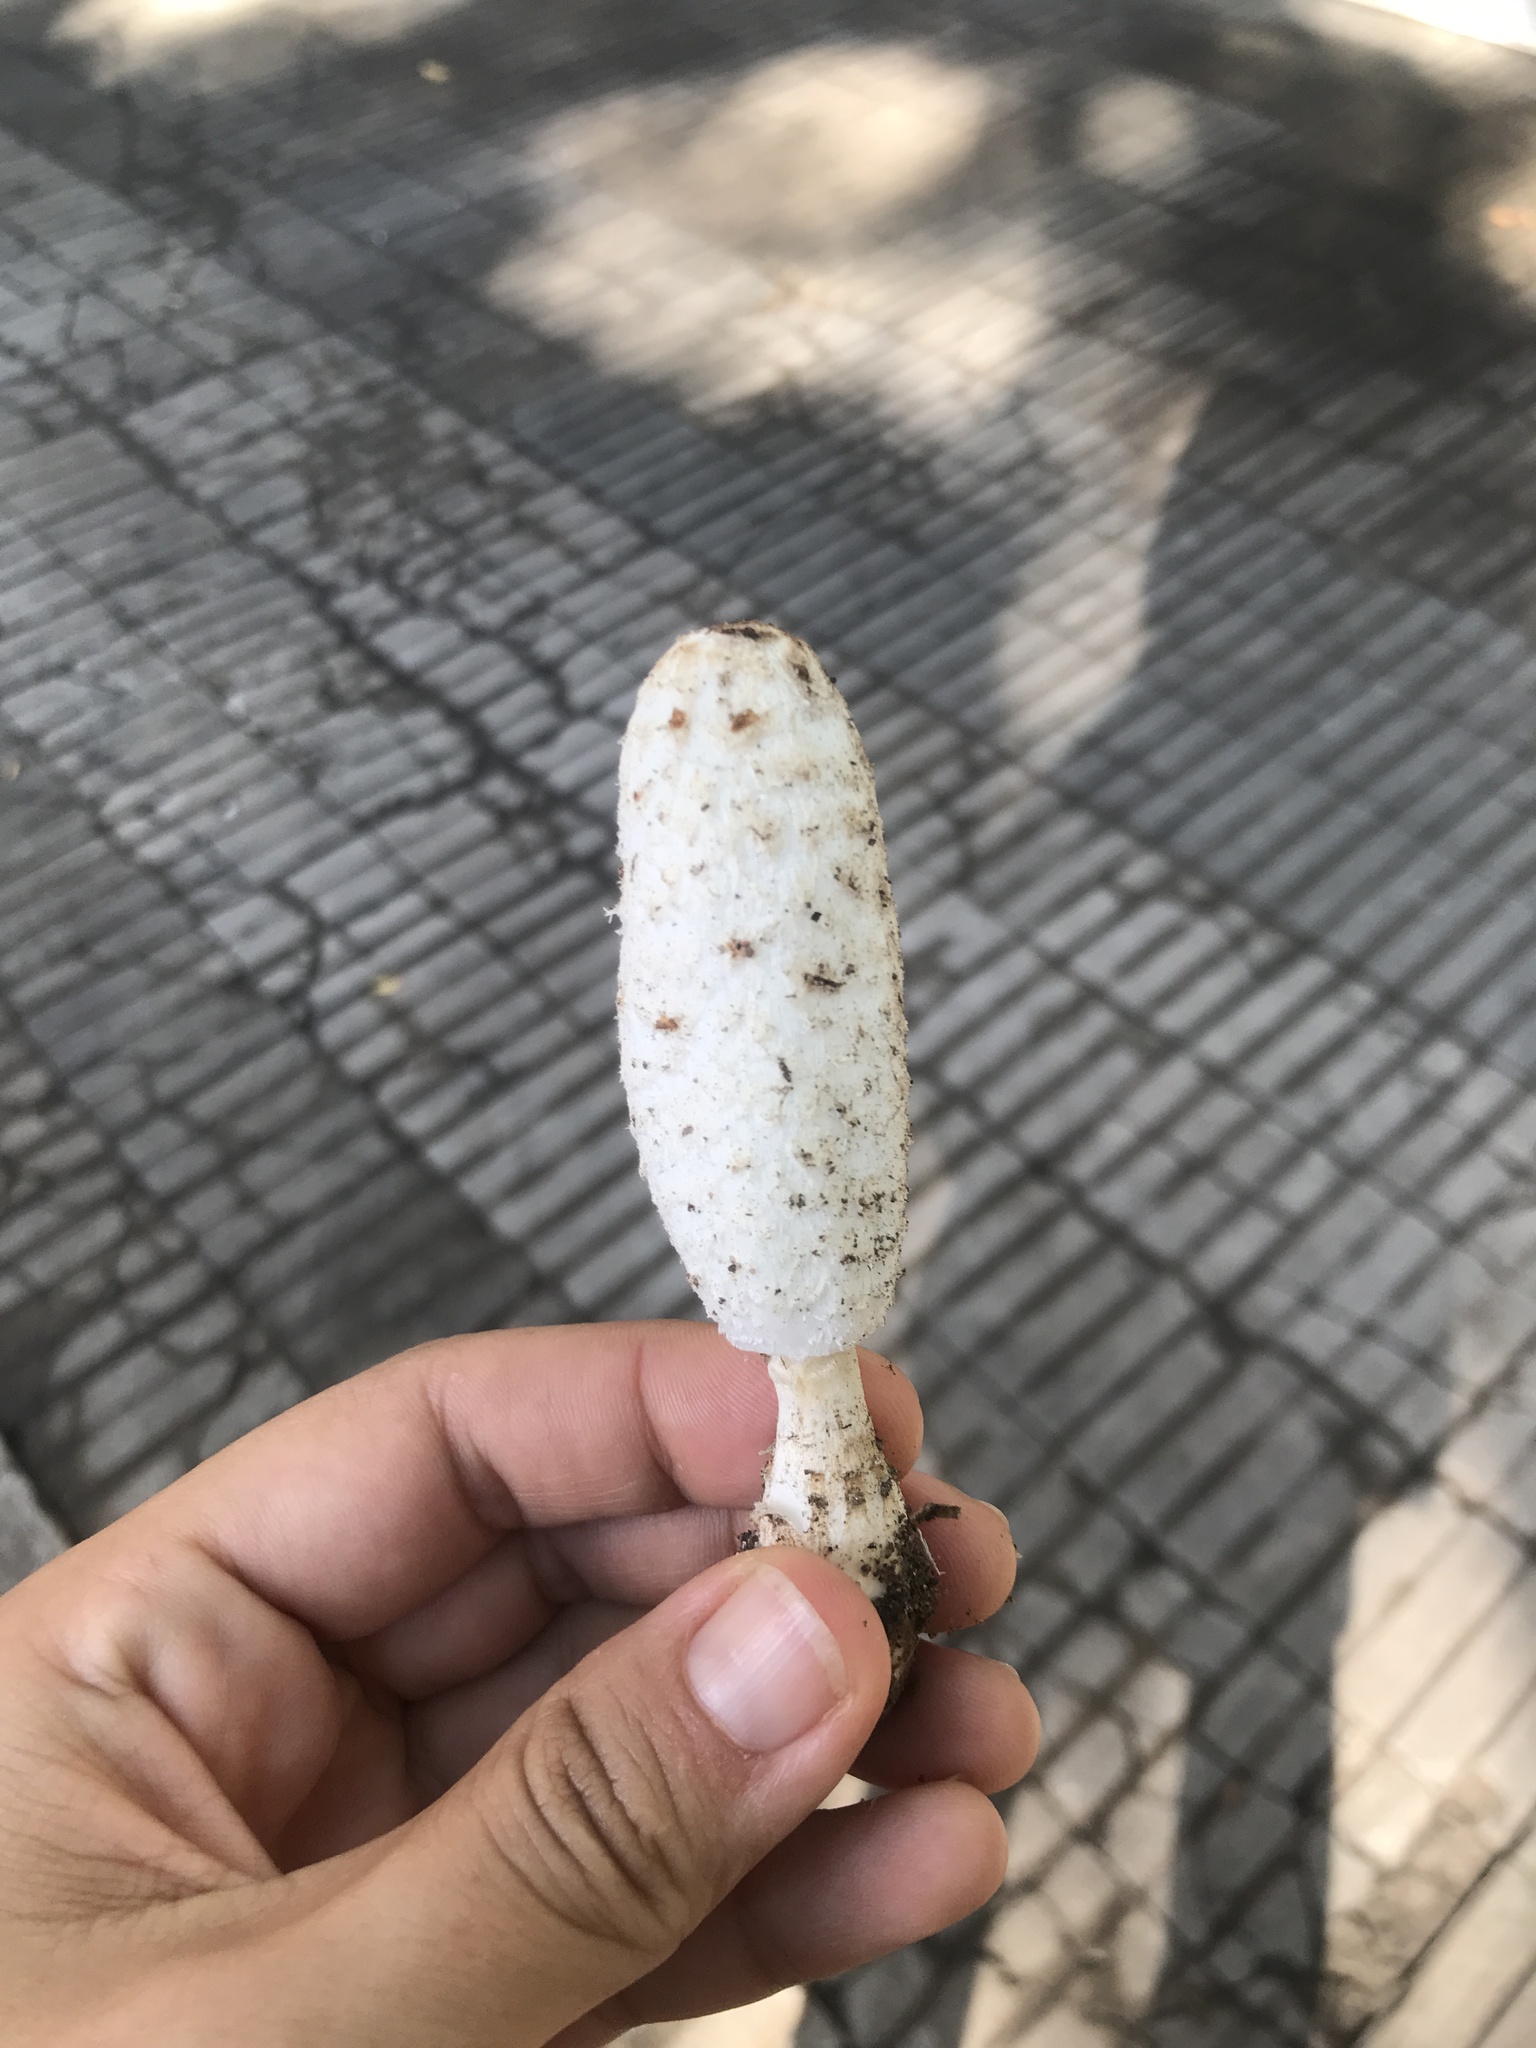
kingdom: Fungi
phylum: Basidiomycota
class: Agaricomycetes
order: Agaricales
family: Agaricaceae
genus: Coprinus
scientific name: Coprinus comatus
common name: Lawyer's wig
